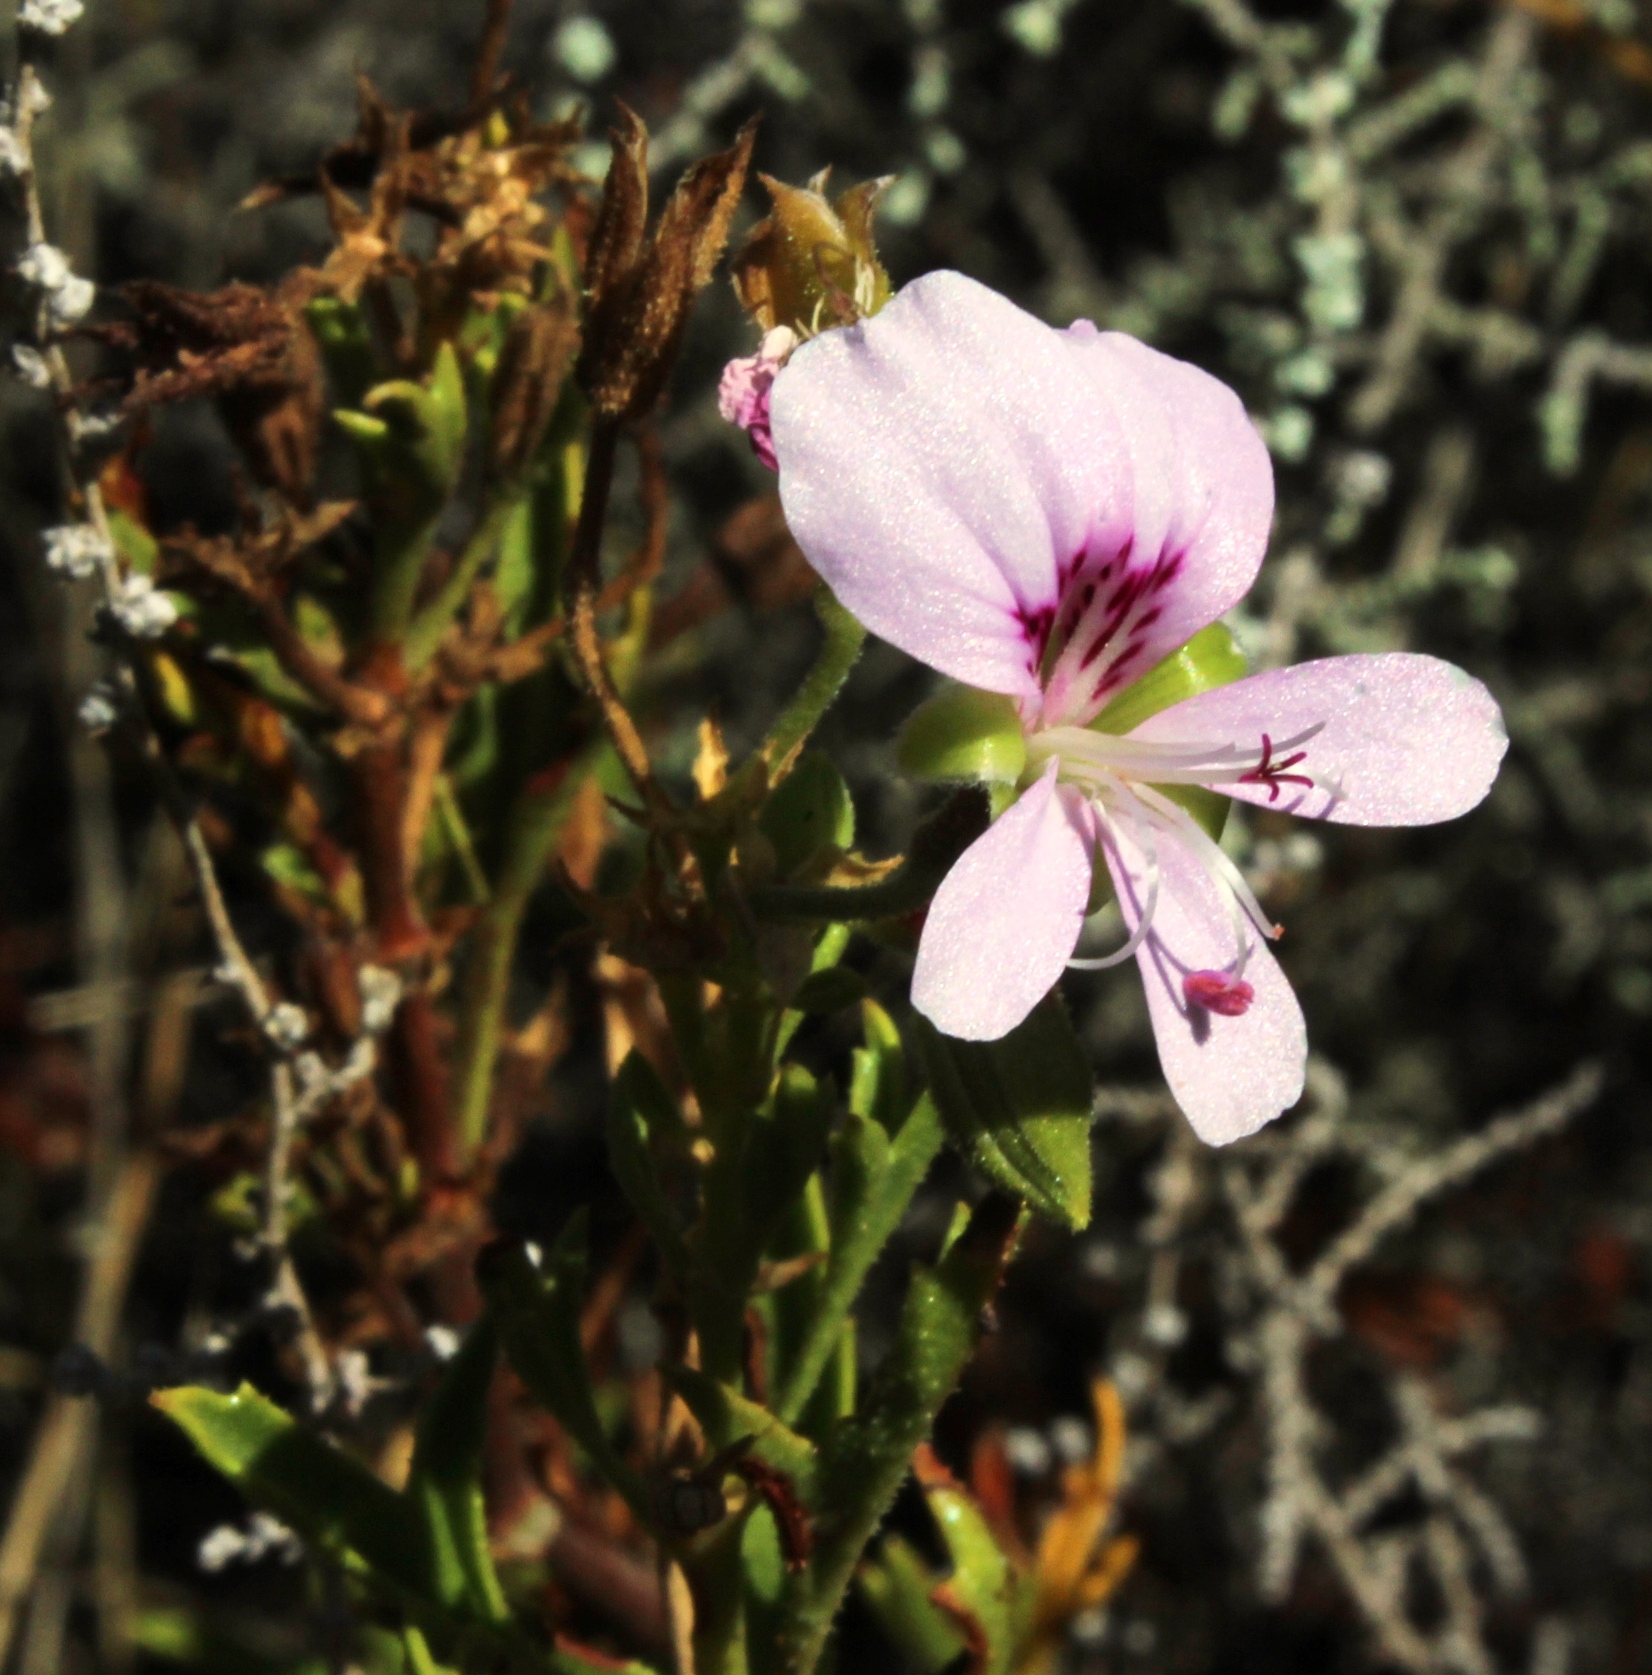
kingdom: Plantae
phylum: Tracheophyta
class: Magnoliopsida
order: Geraniales
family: Geraniaceae
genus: Pelargonium
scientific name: Pelargonium scabrum
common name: Apricot geranium
